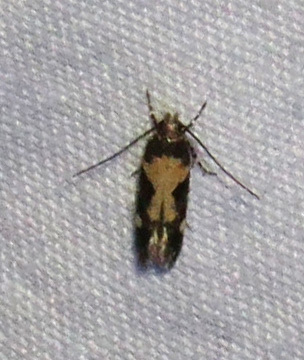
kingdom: Animalia
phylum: Arthropoda
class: Insecta
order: Lepidoptera
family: Gelechiidae
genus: Stegasta
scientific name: Stegasta bosqueella
